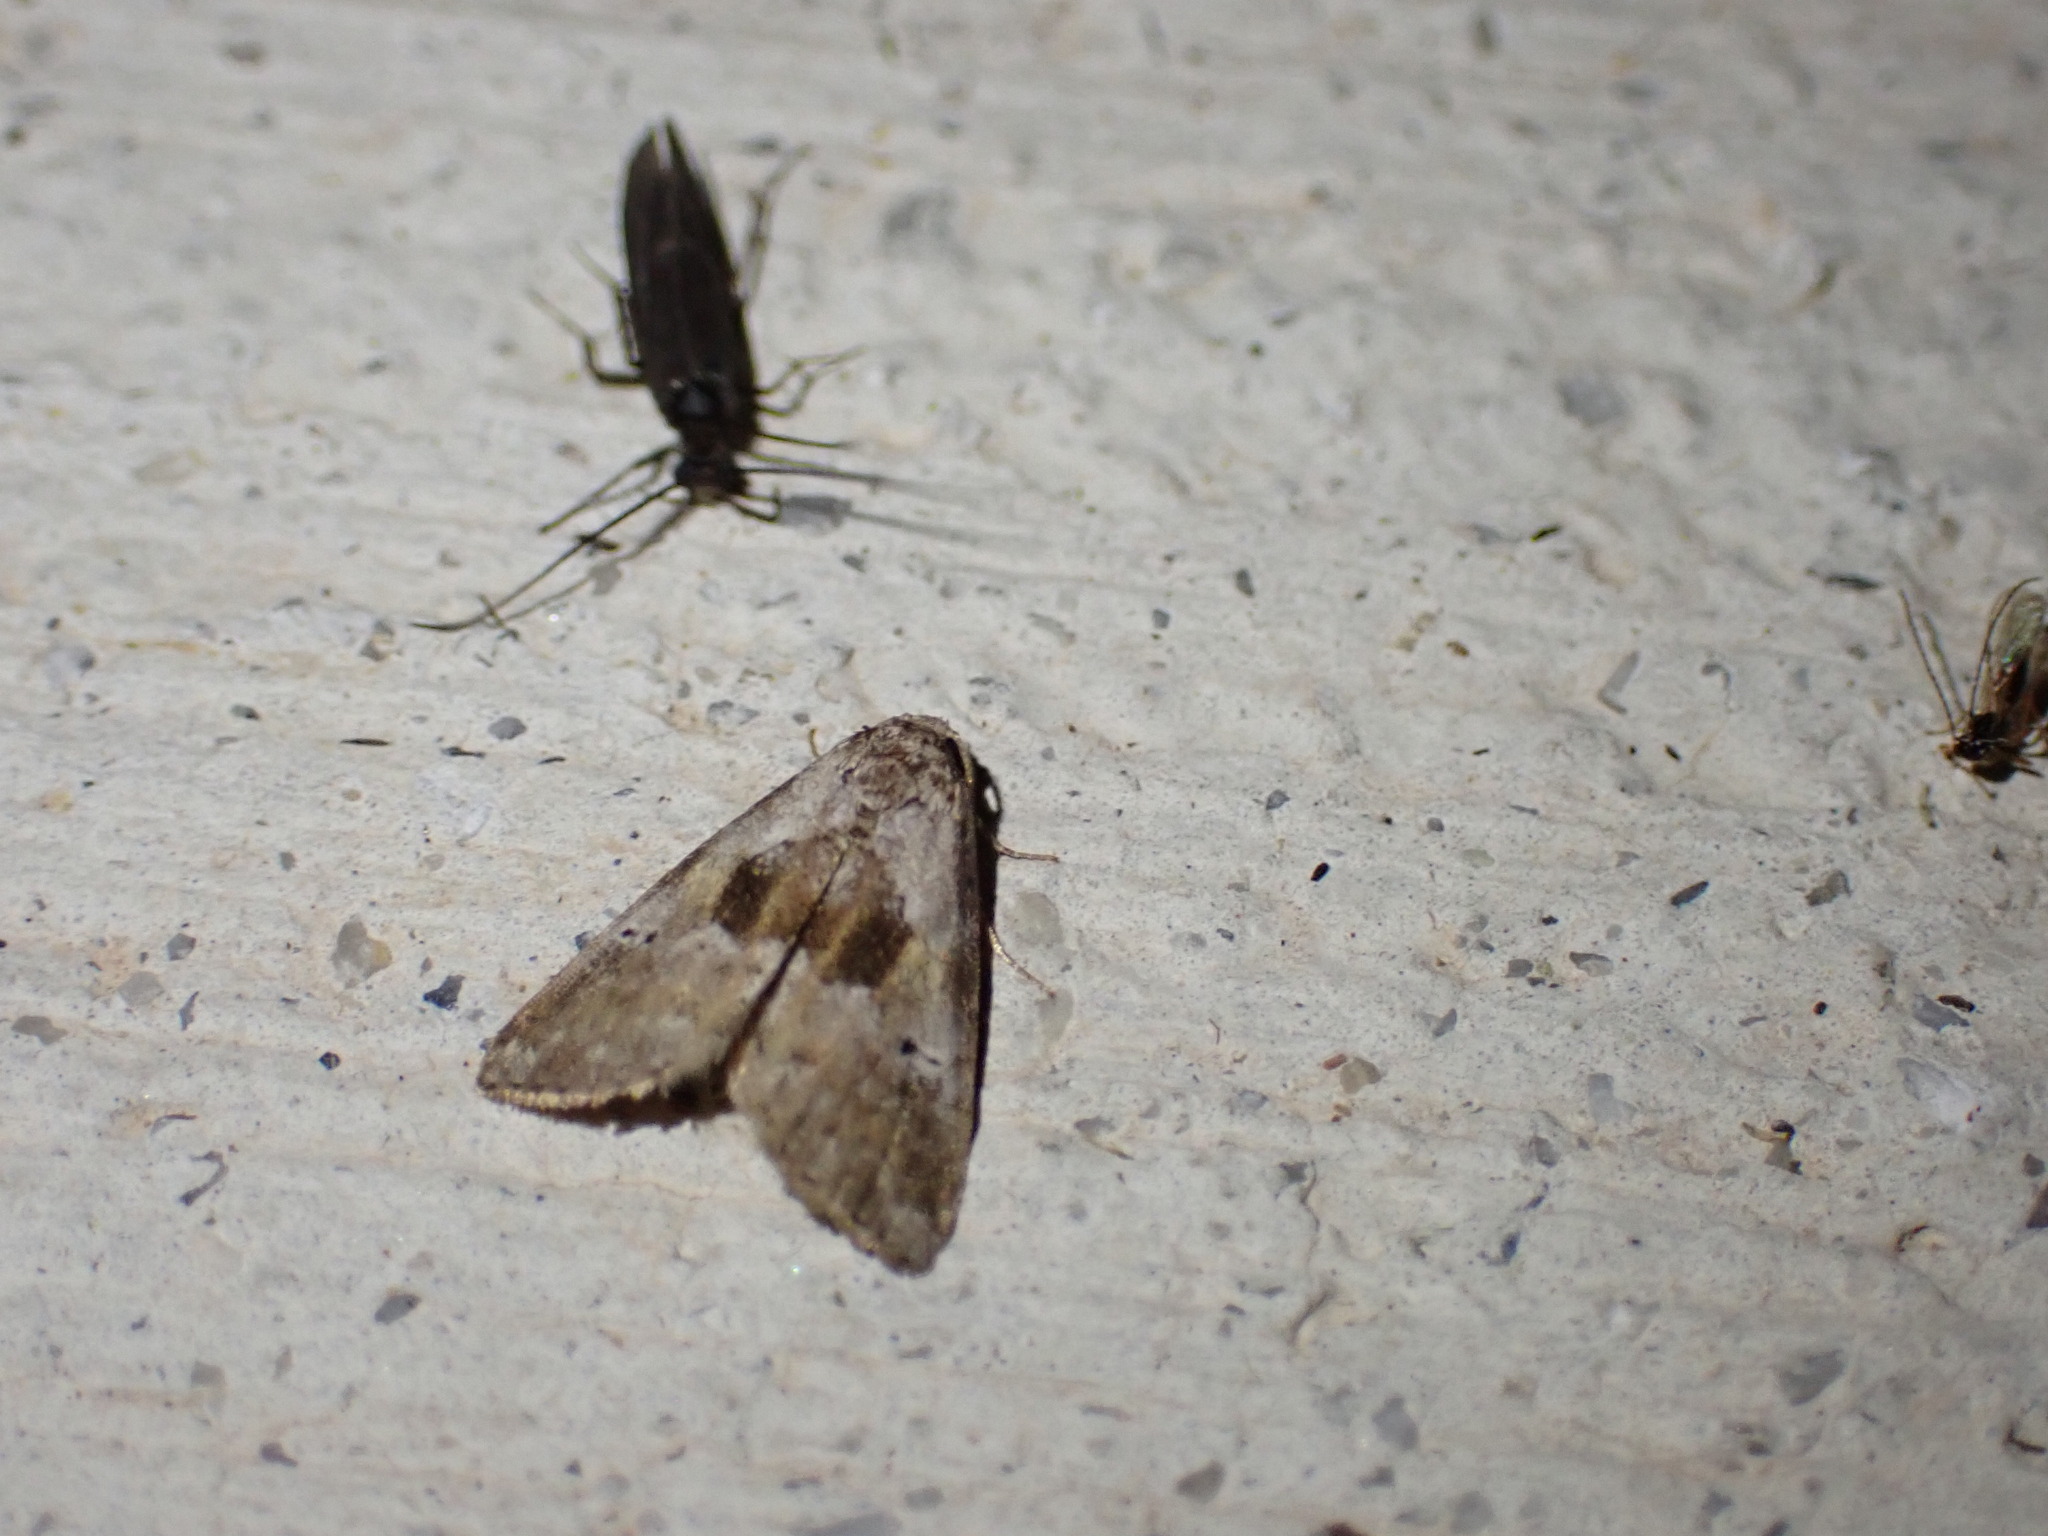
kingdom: Animalia
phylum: Arthropoda
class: Insecta
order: Lepidoptera
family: Erebidae
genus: Hyperstrotia
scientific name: Hyperstrotia secta
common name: Black-patched graylet
